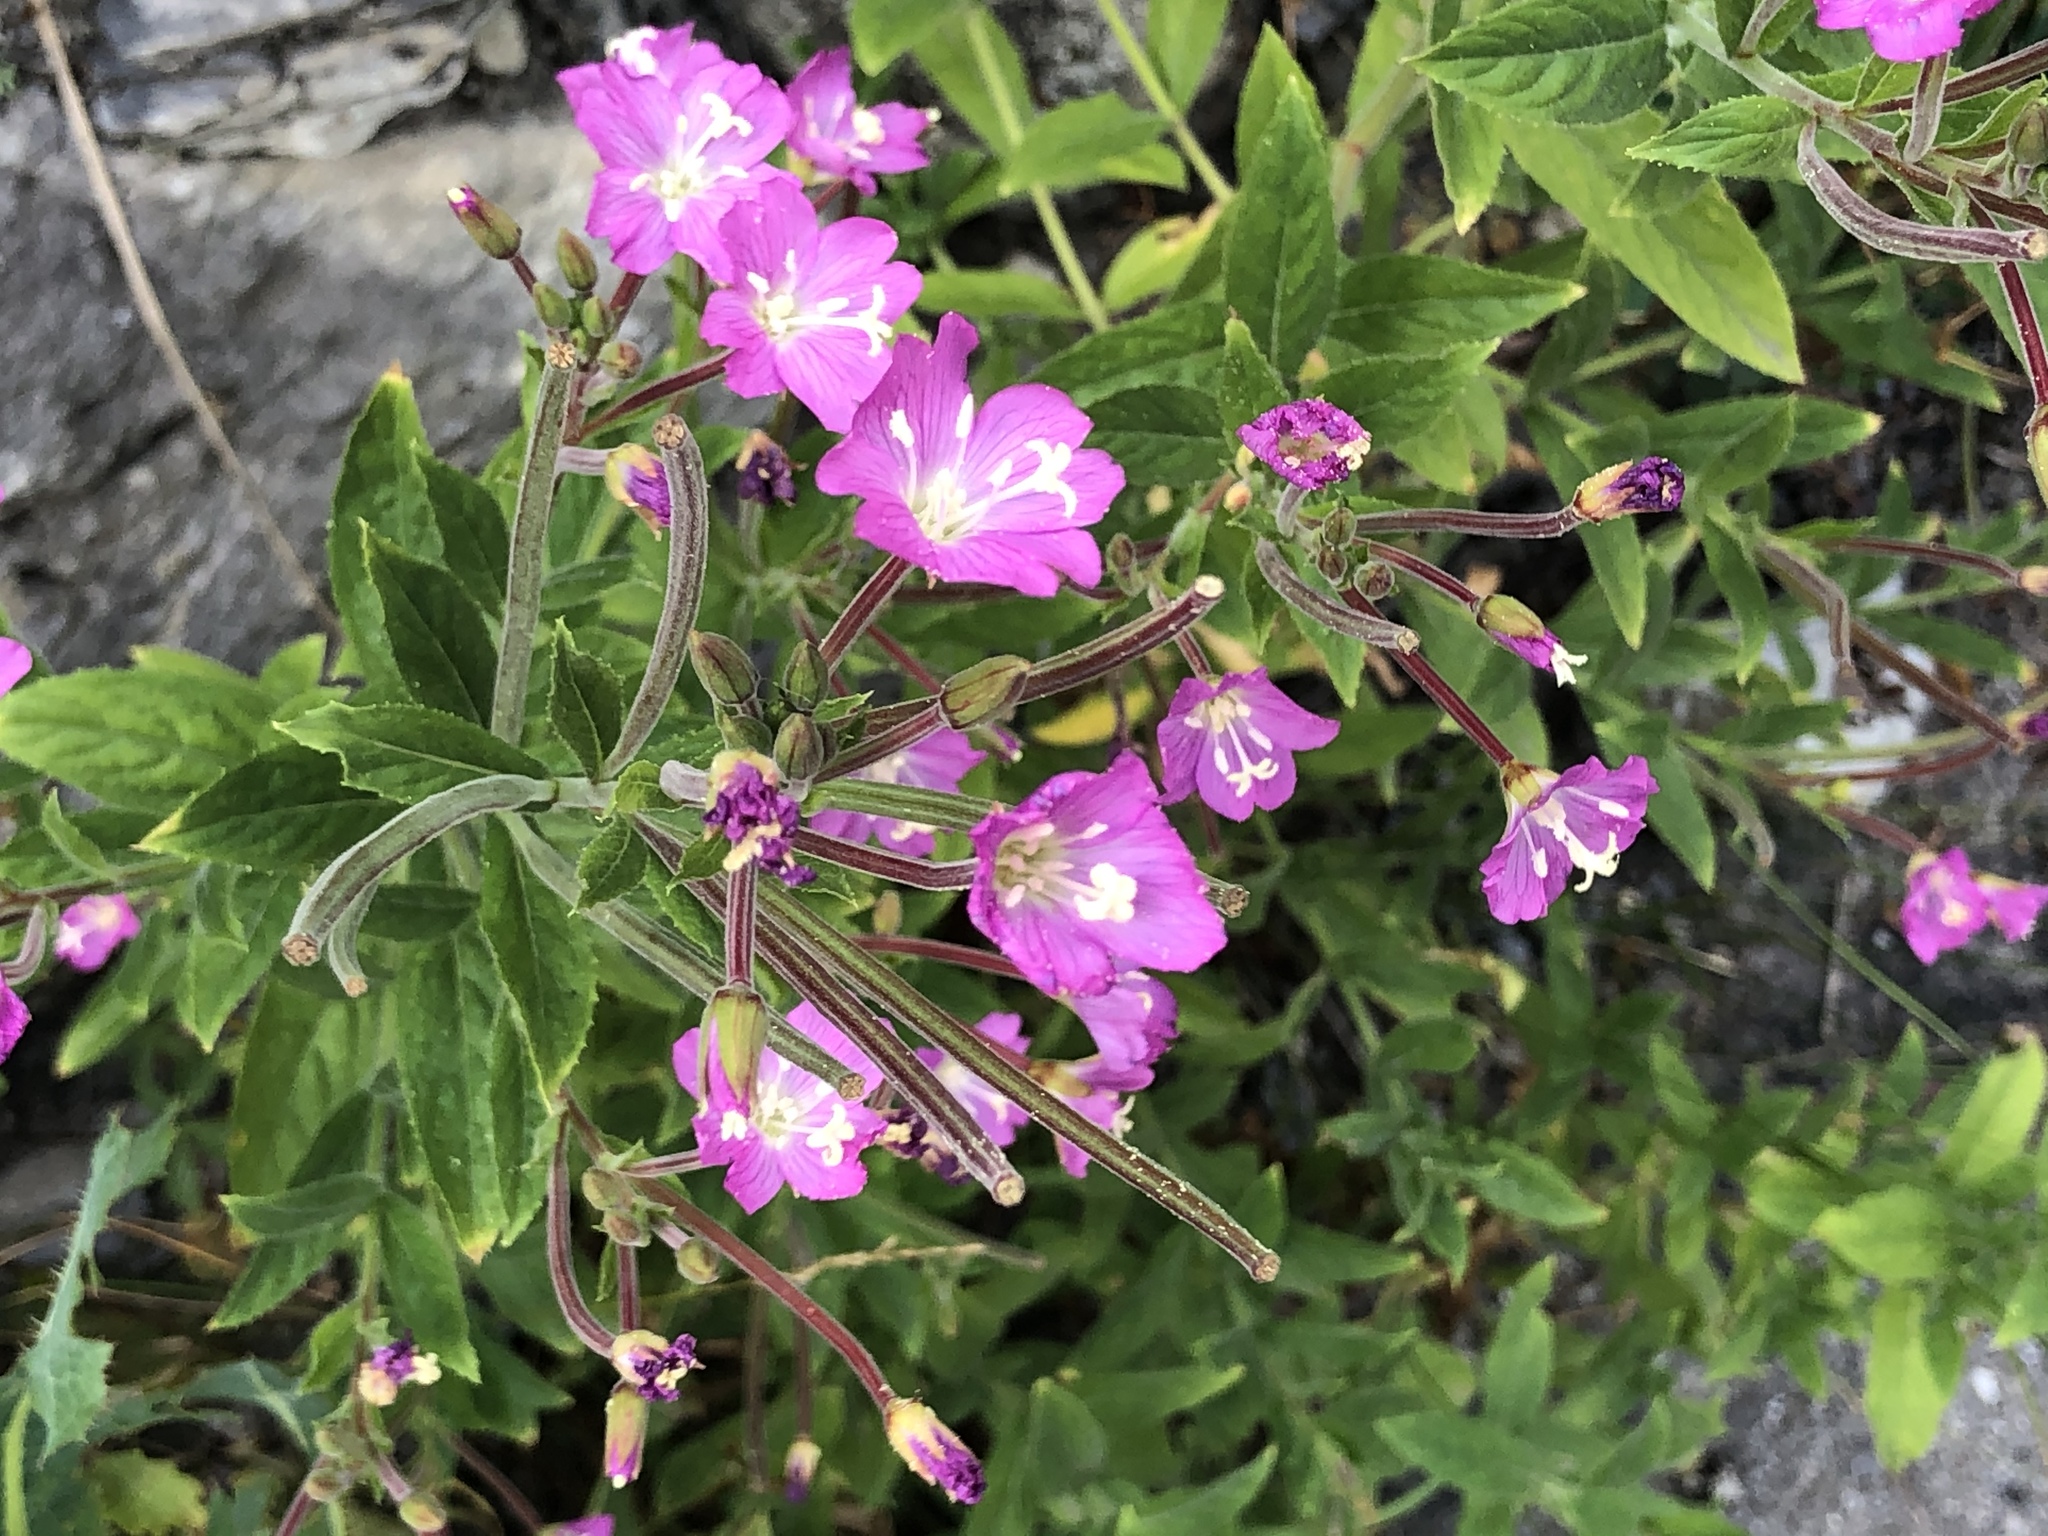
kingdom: Plantae
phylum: Tracheophyta
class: Magnoliopsida
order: Myrtales
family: Onagraceae
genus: Epilobium
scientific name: Epilobium hirsutum
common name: Great willowherb
